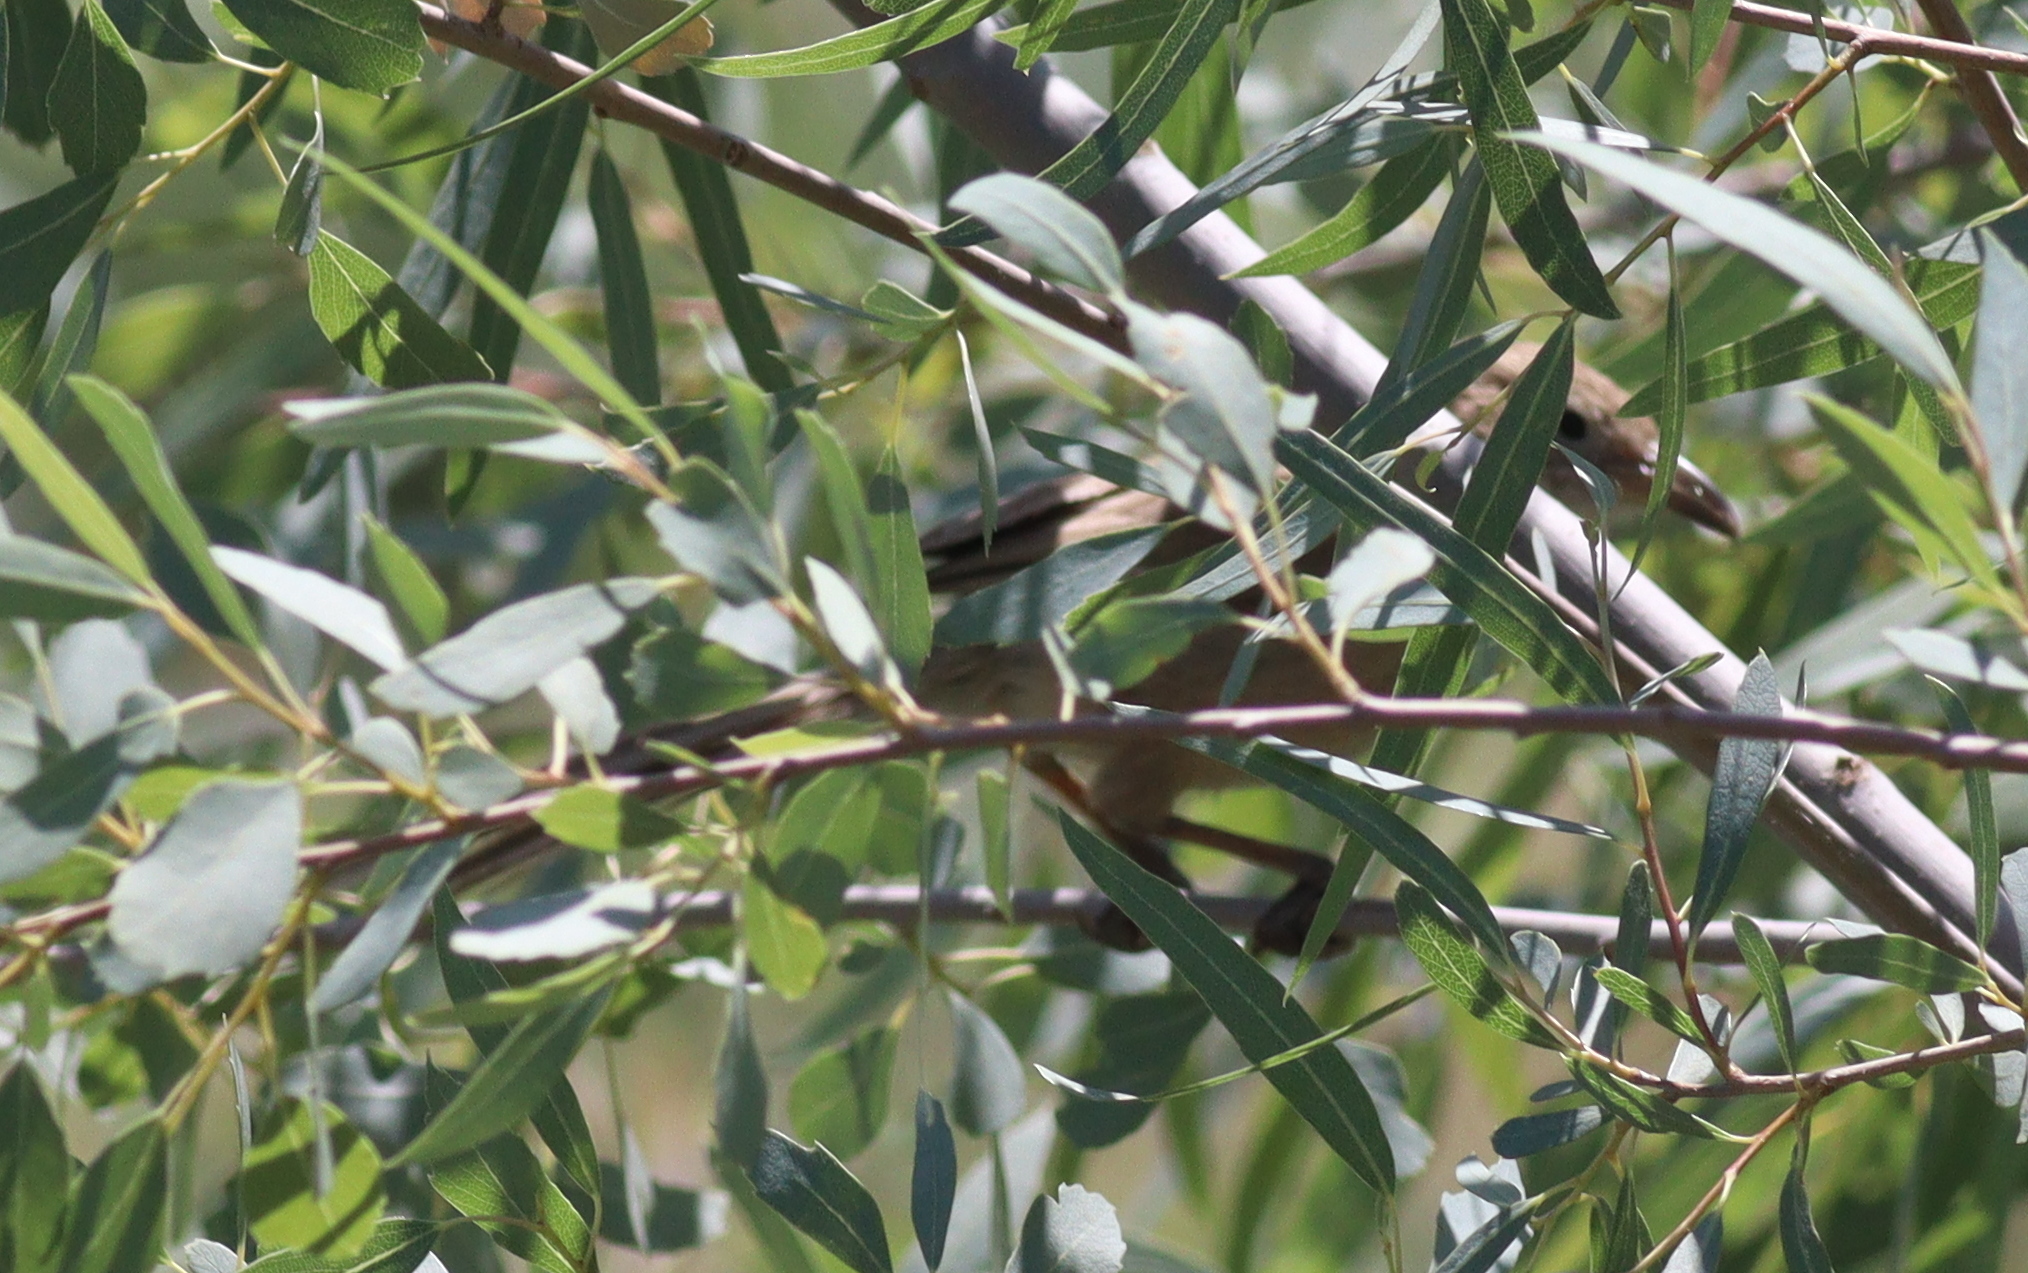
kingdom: Animalia
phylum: Chordata
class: Aves
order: Passeriformes
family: Leiothrichidae
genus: Turdoides
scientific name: Turdoides altirostris
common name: Iraq babbler
